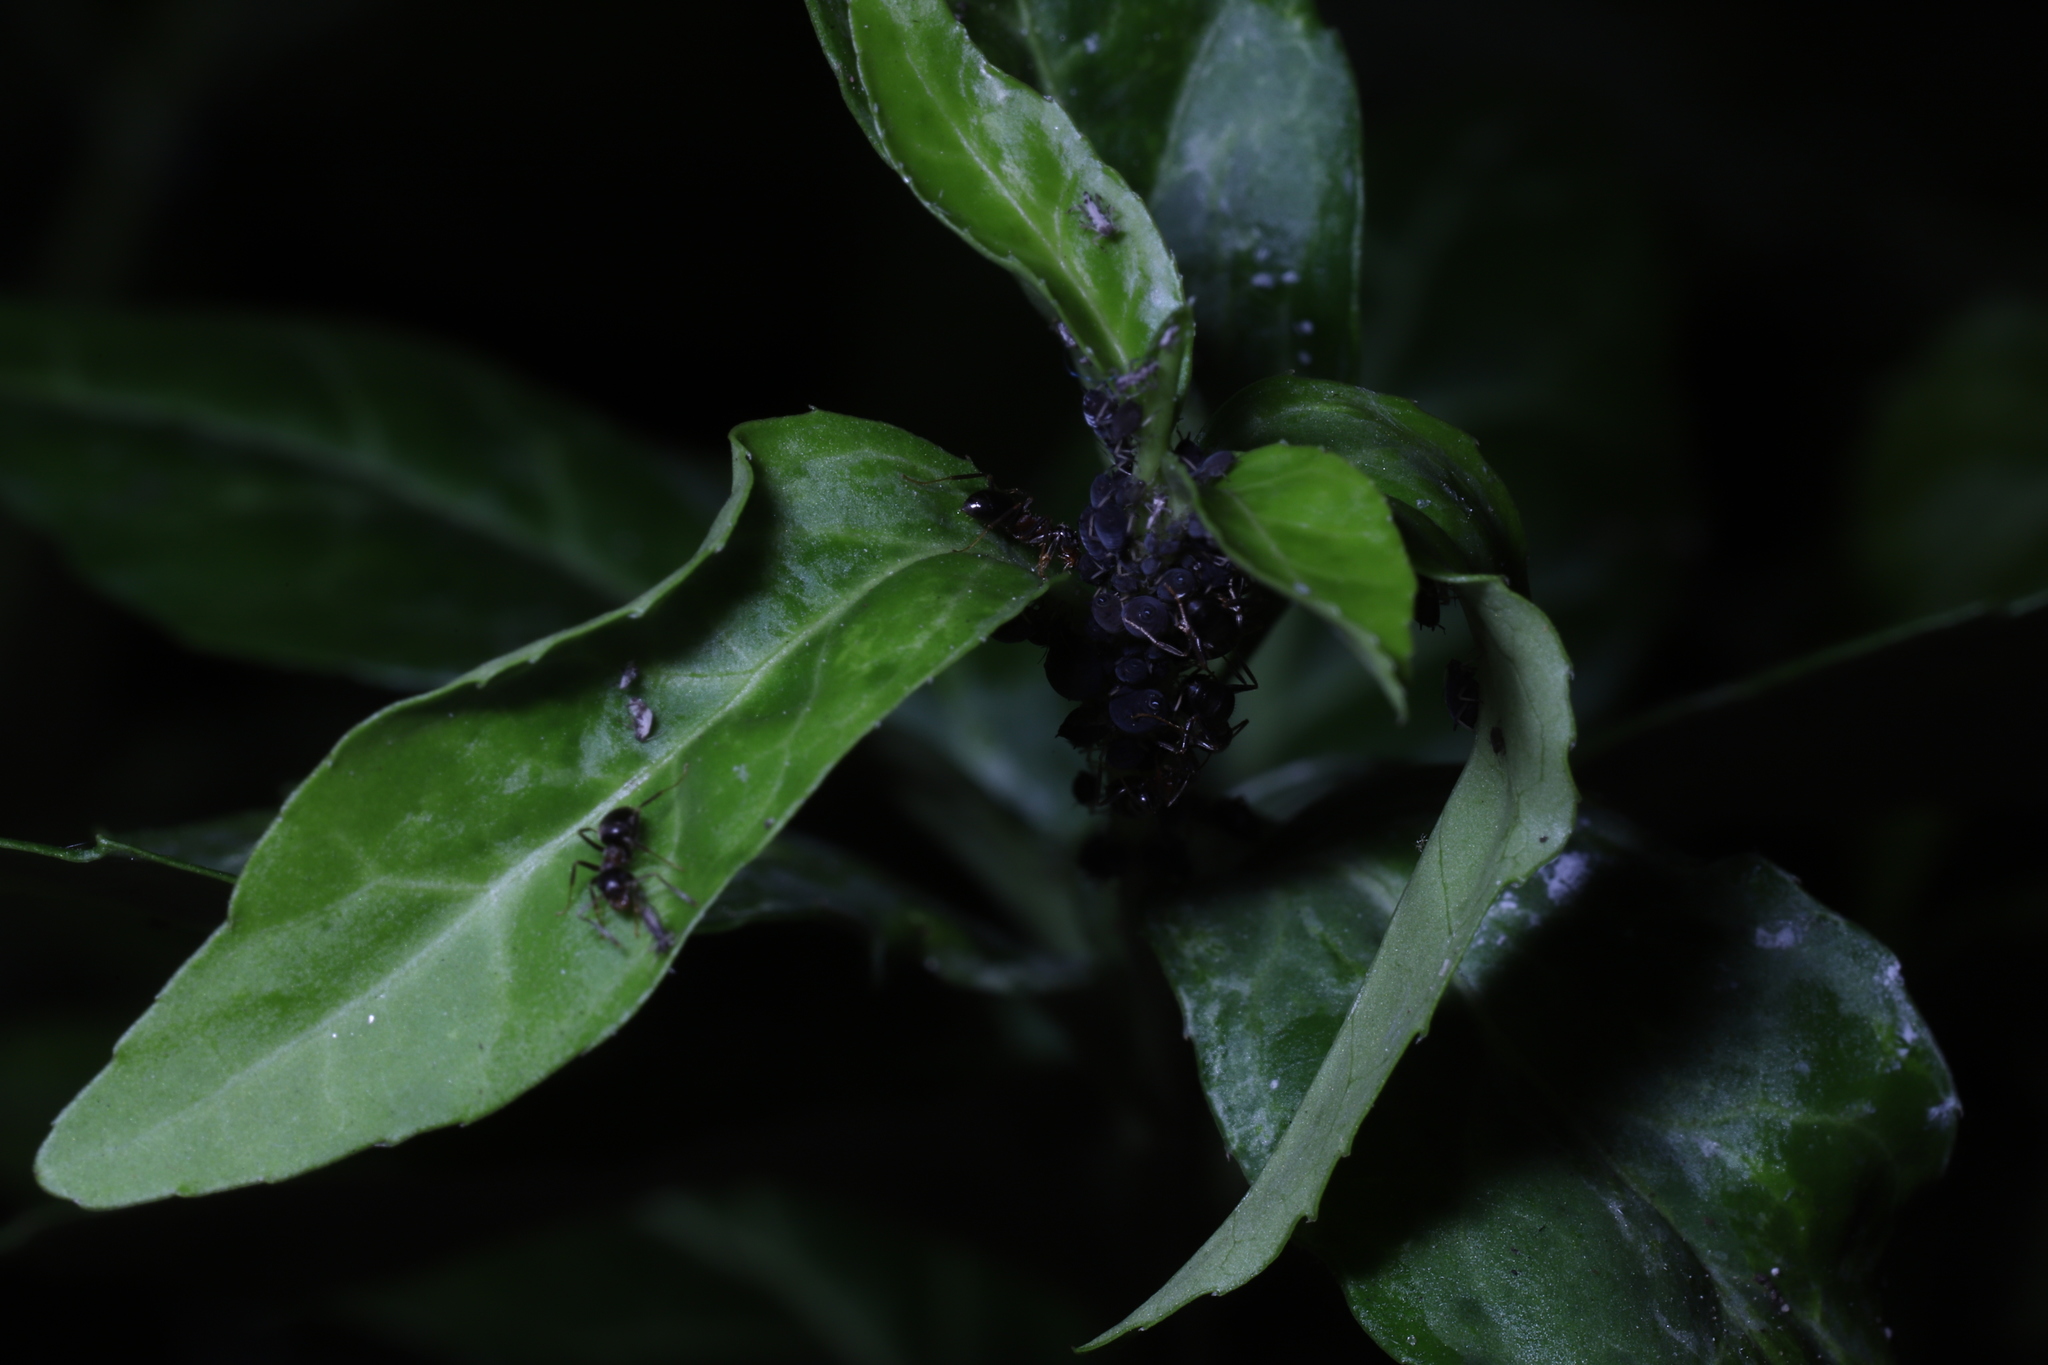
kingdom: Animalia
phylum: Arthropoda
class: Insecta
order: Hymenoptera
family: Formicidae
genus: Lasius
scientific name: Lasius emarginatus
